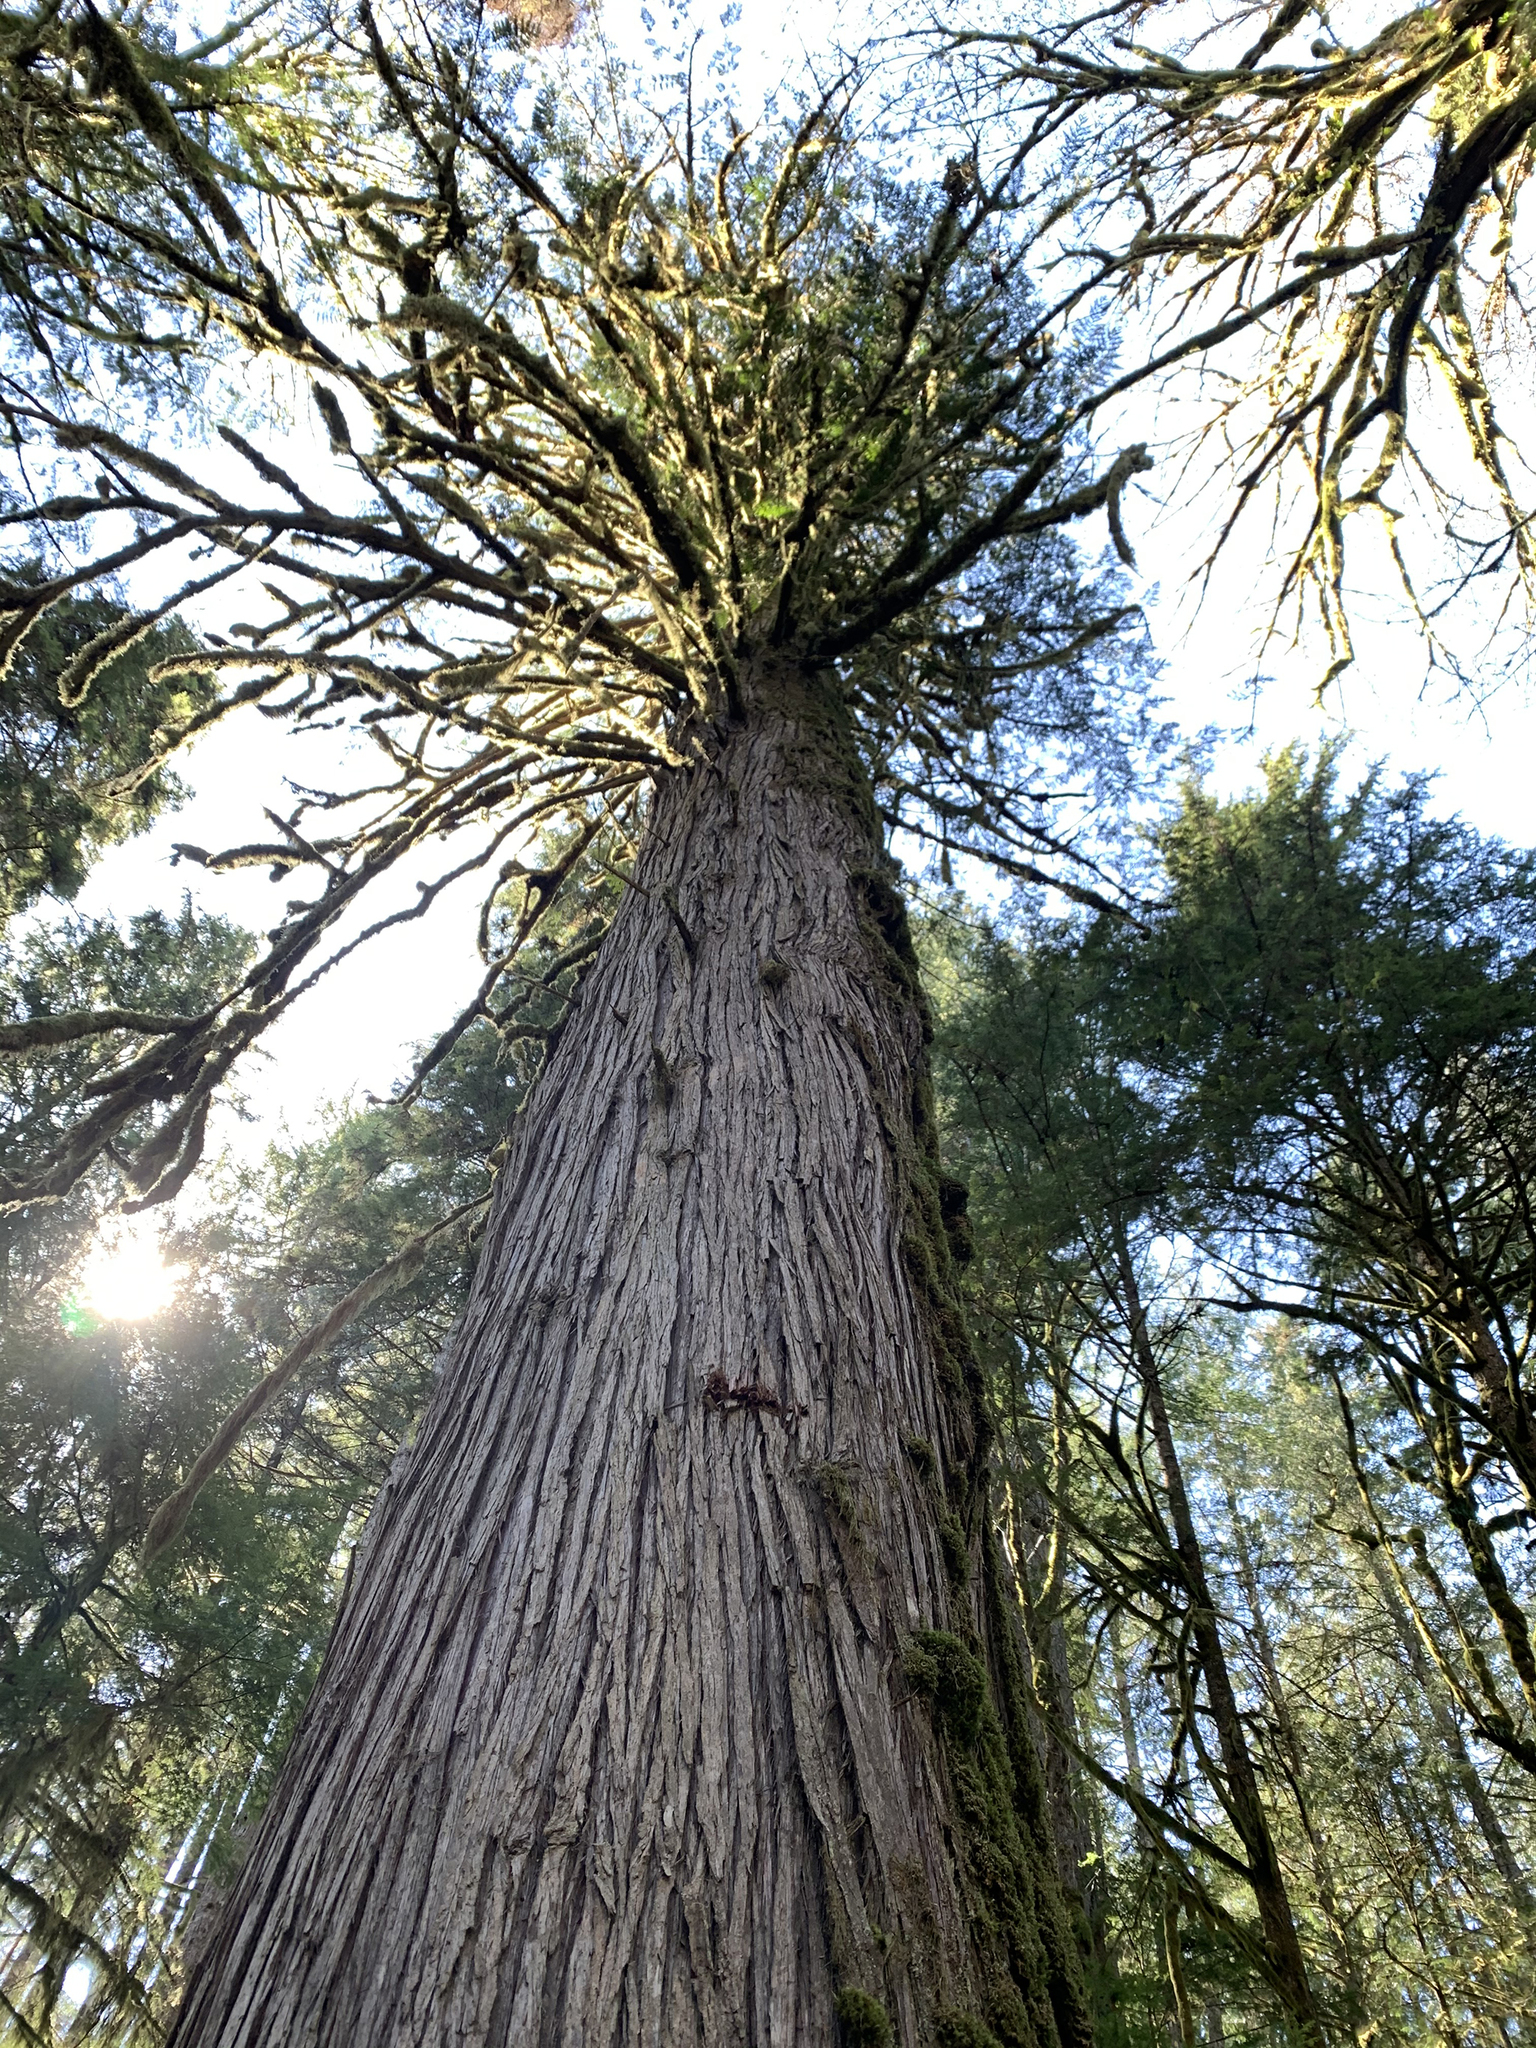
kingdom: Plantae
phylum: Tracheophyta
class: Pinopsida
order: Pinales
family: Cupressaceae
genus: Thuja
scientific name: Thuja plicata
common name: Western red-cedar
